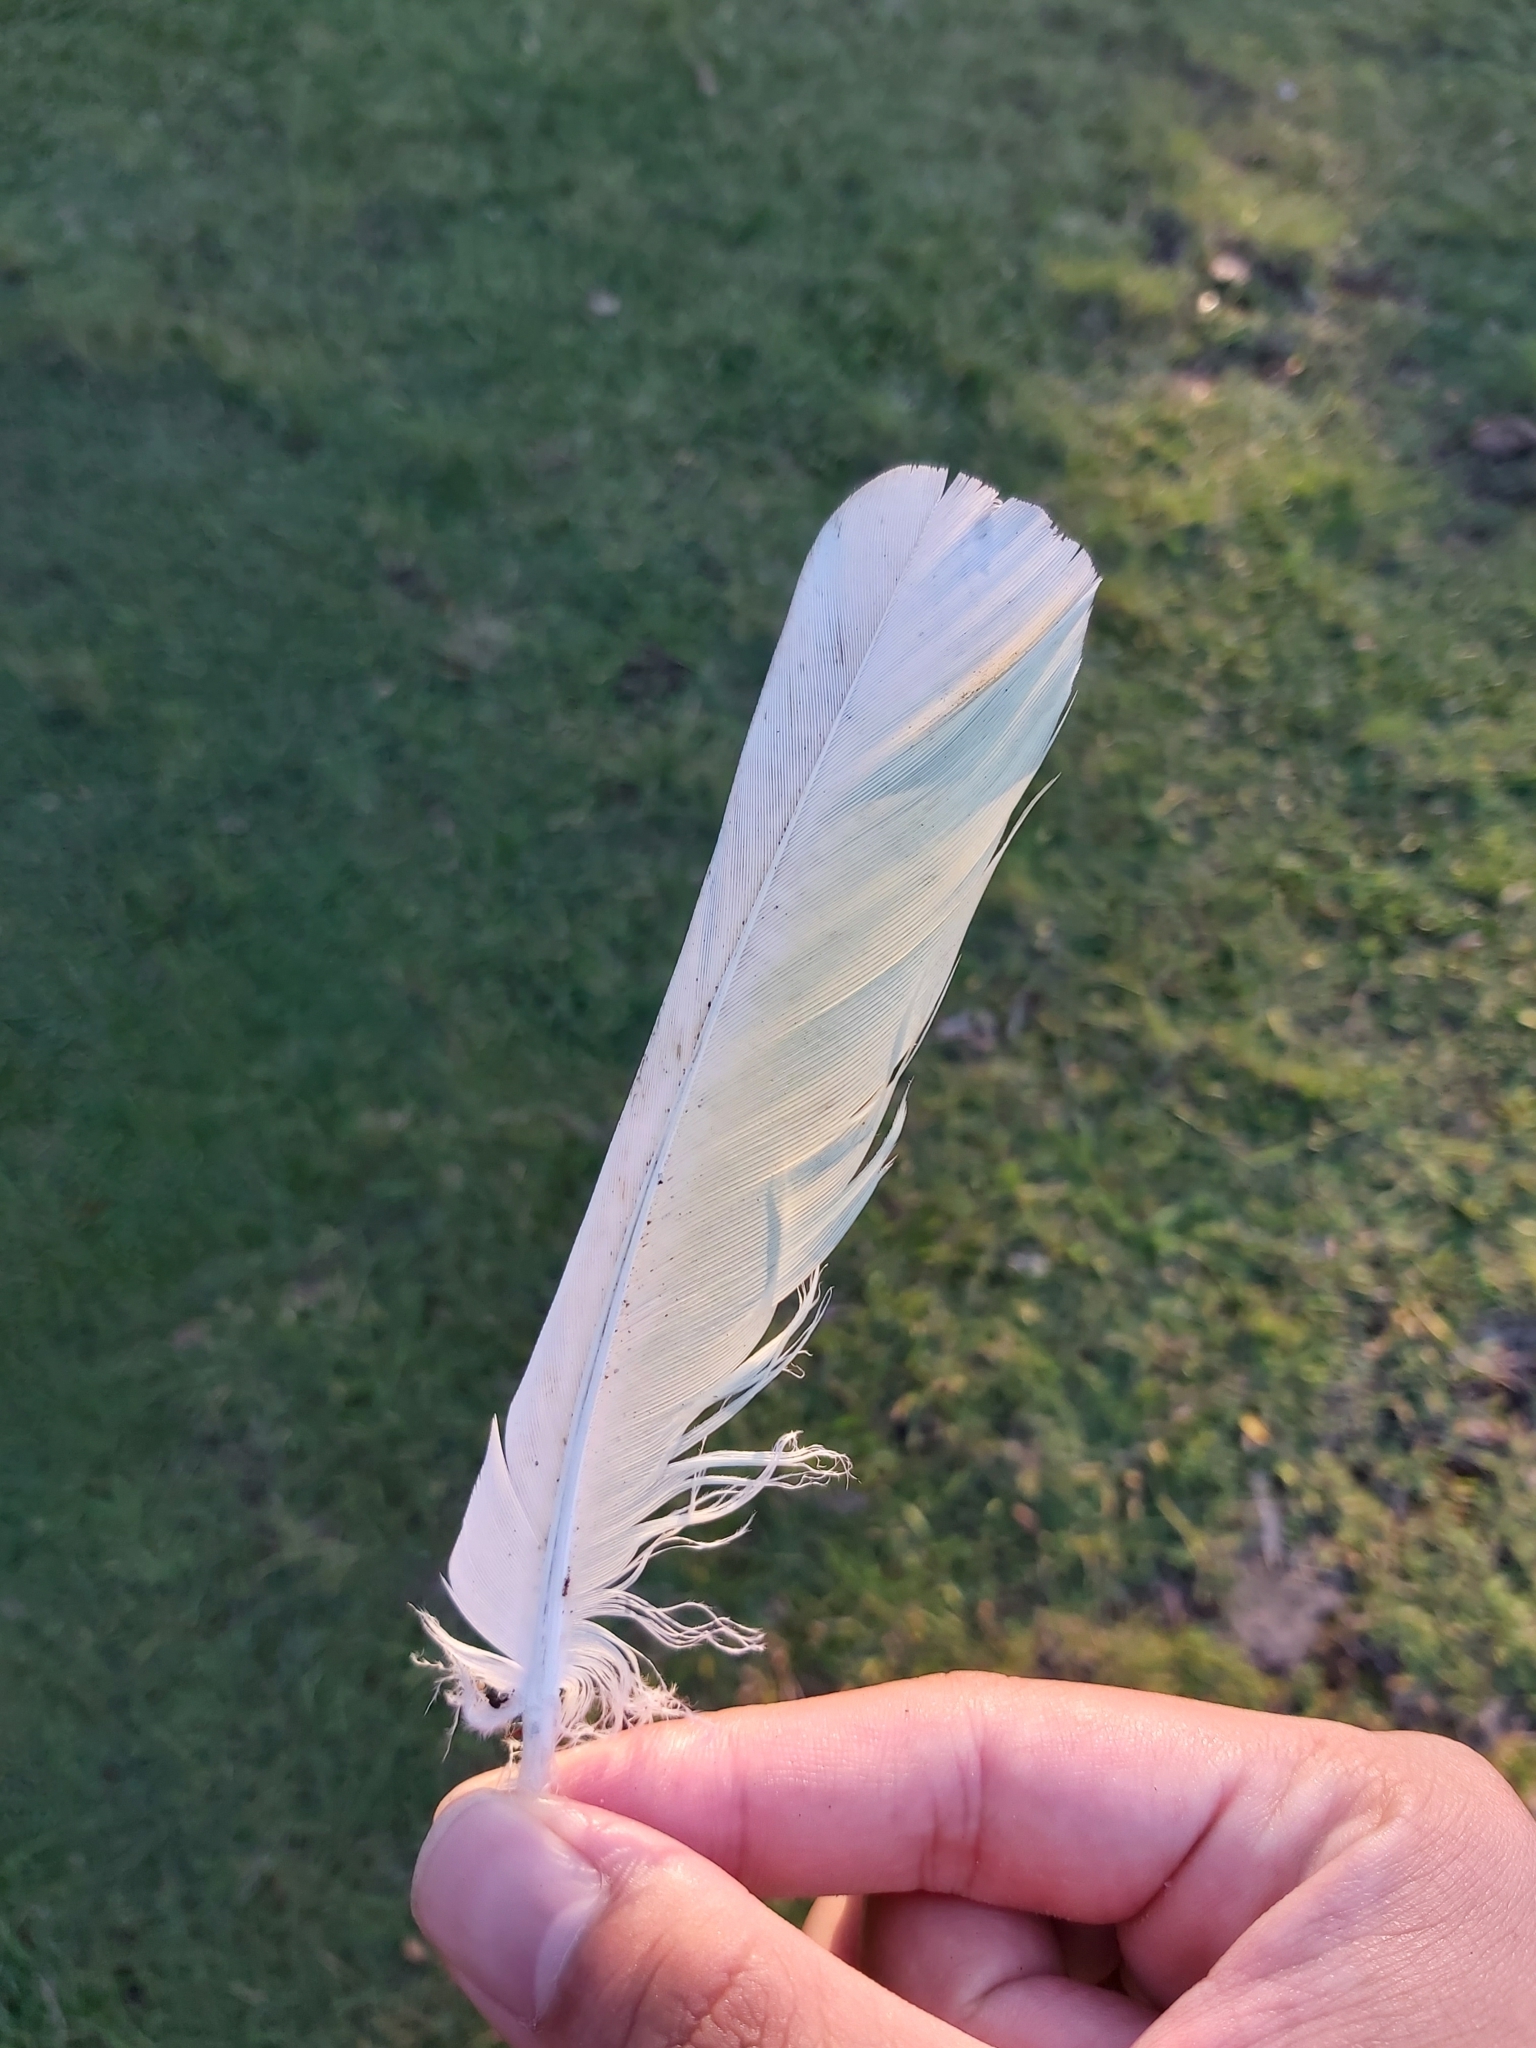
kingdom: Animalia
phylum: Chordata
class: Aves
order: Psittaciformes
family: Psittacidae
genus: Cacatua
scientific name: Cacatua sanguinea
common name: Little corella
